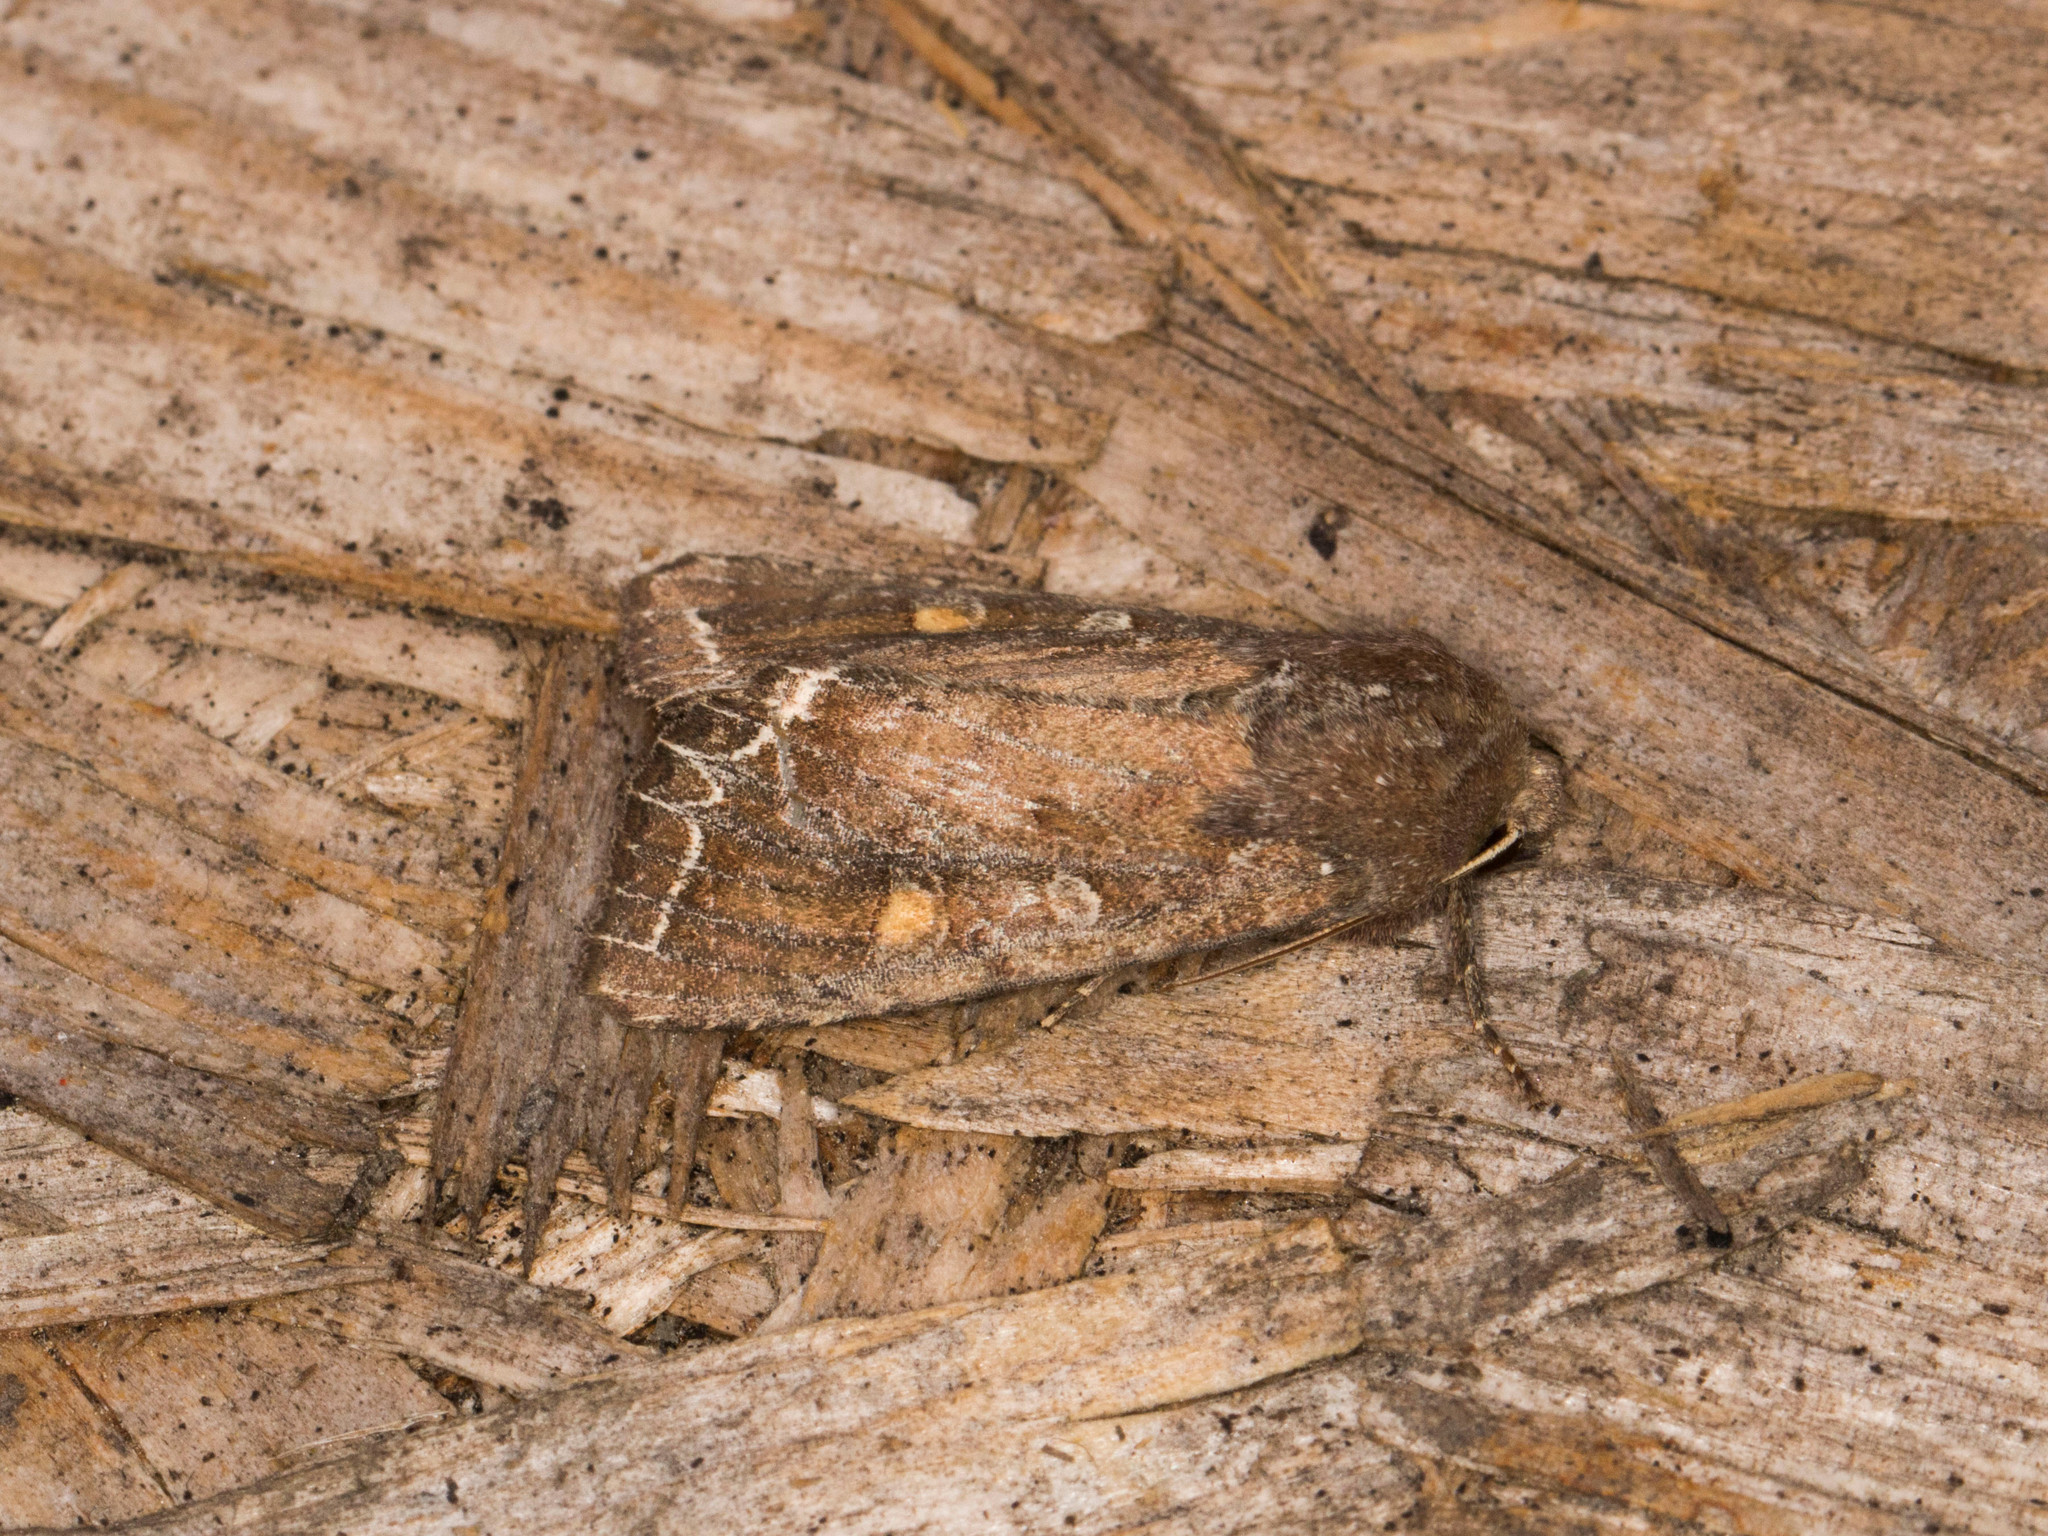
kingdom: Animalia
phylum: Arthropoda
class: Insecta
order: Lepidoptera
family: Noctuidae
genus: Lacanobia
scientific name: Lacanobia oleracea
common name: Bright-line brown-eye
